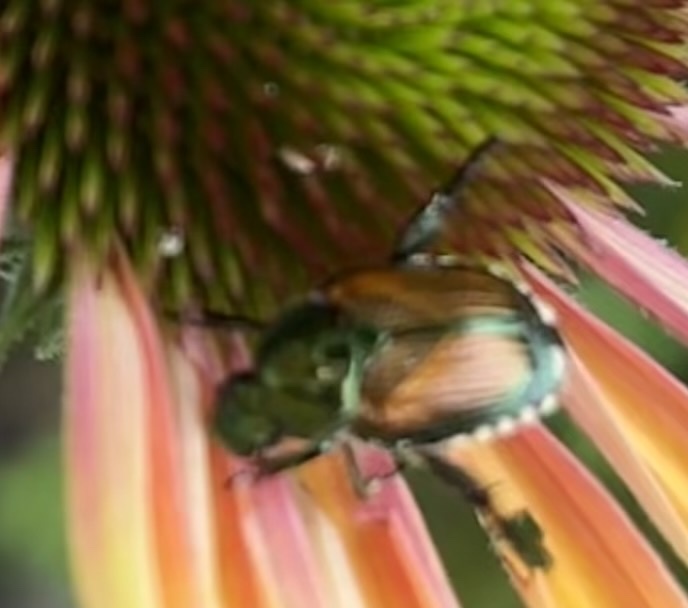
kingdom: Animalia
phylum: Arthropoda
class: Insecta
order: Coleoptera
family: Scarabaeidae
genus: Popillia
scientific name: Popillia japonica
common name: Japanese beetle
